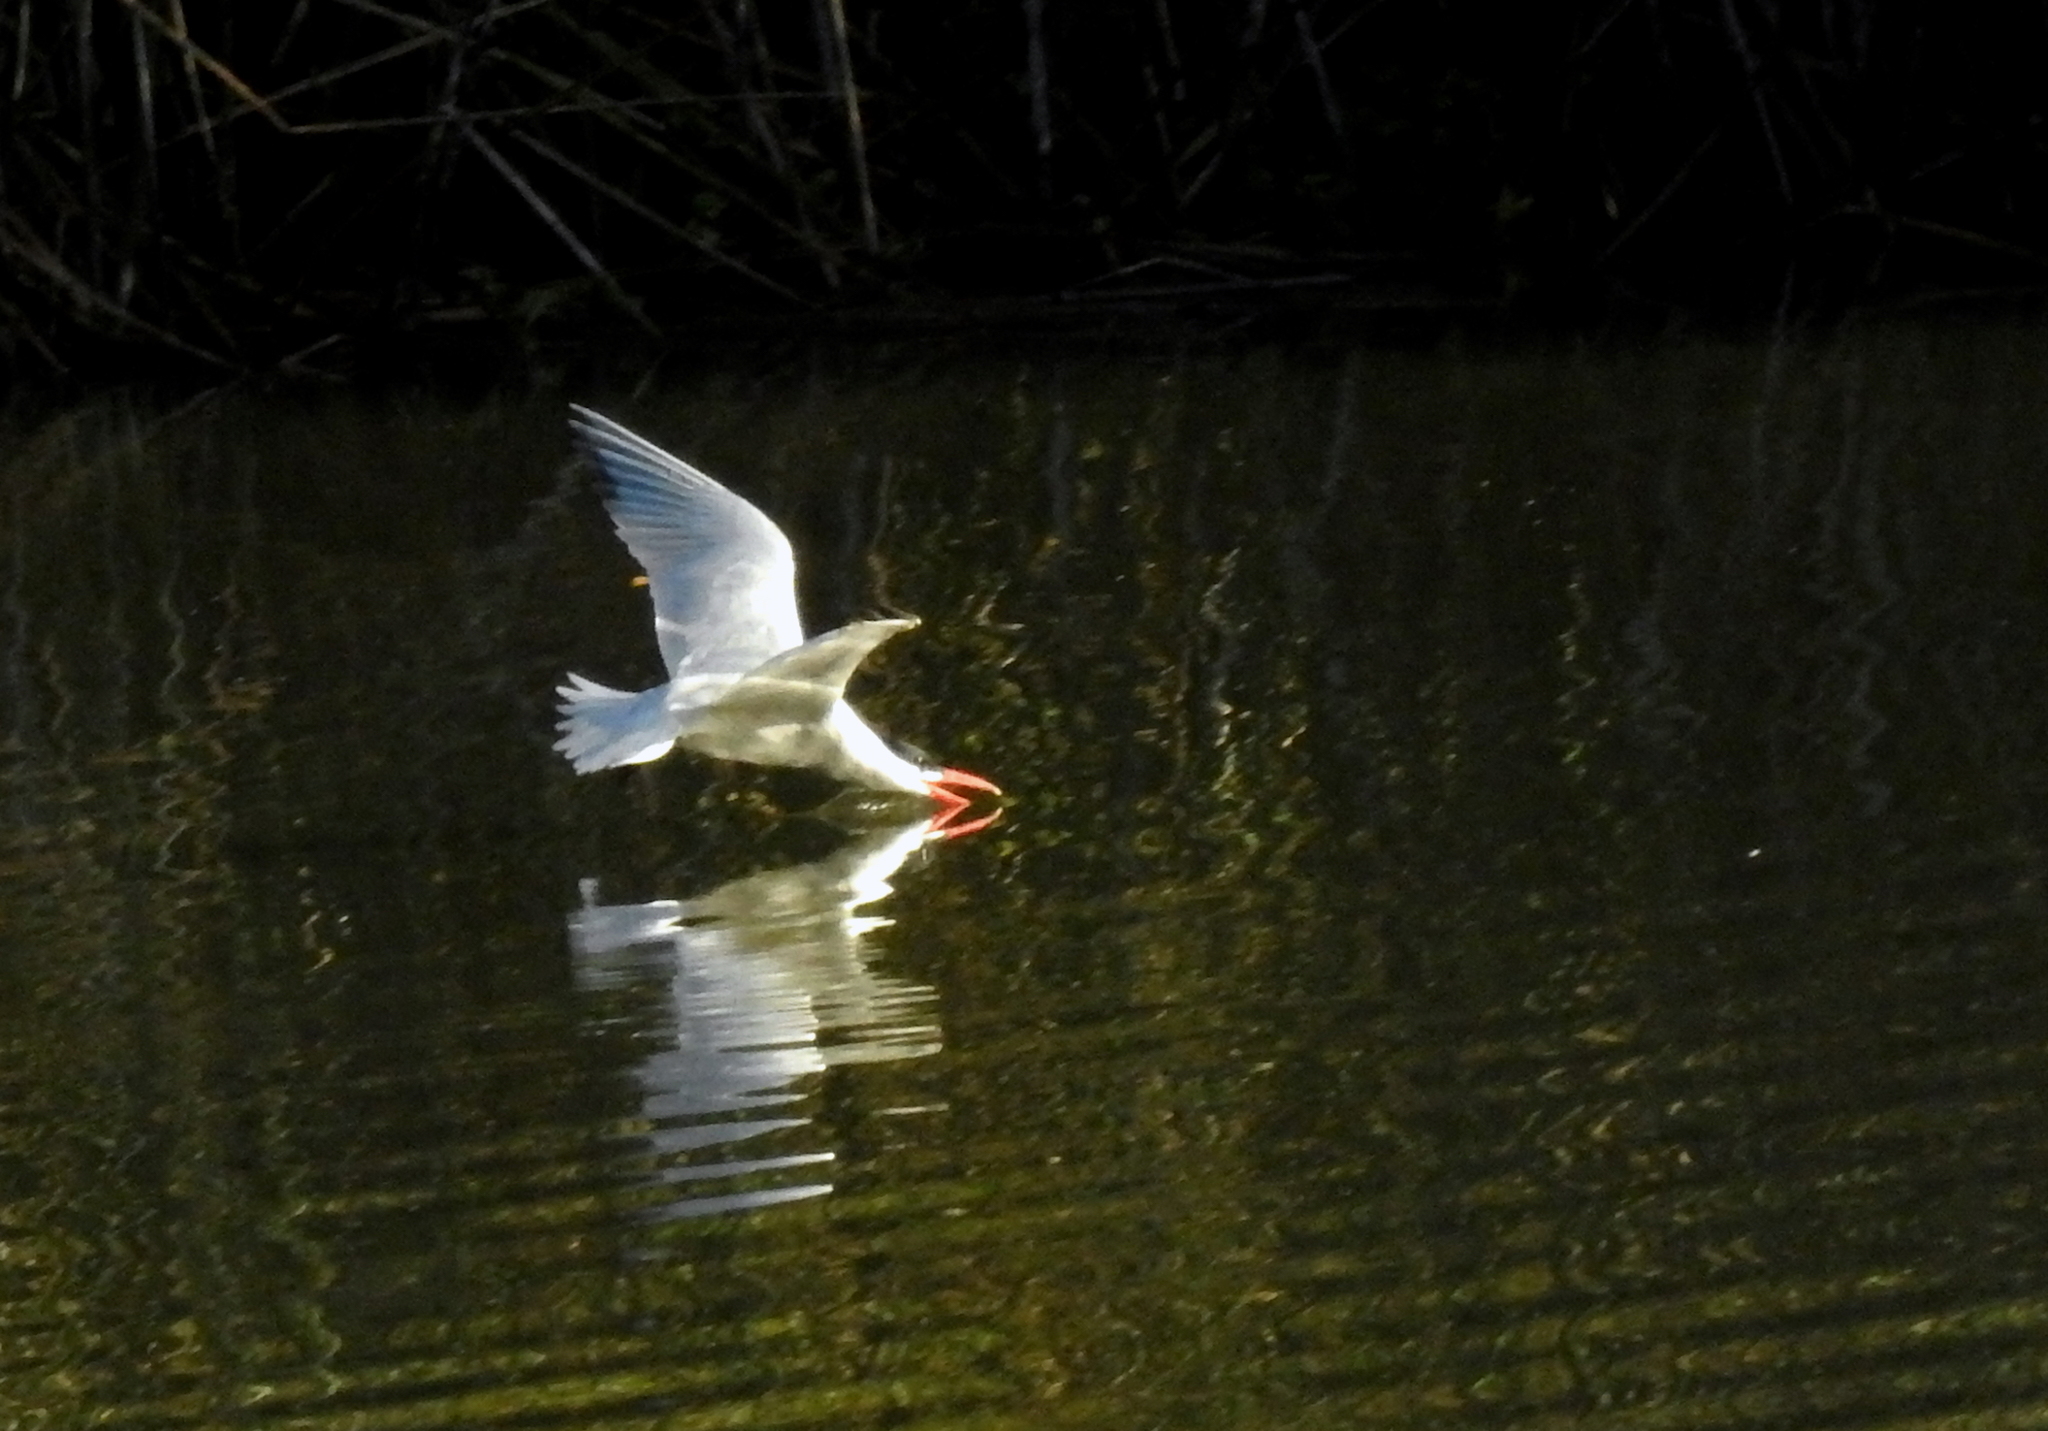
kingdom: Animalia
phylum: Chordata
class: Aves
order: Charadriiformes
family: Laridae
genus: Hydroprogne
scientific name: Hydroprogne caspia
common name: Caspian tern
